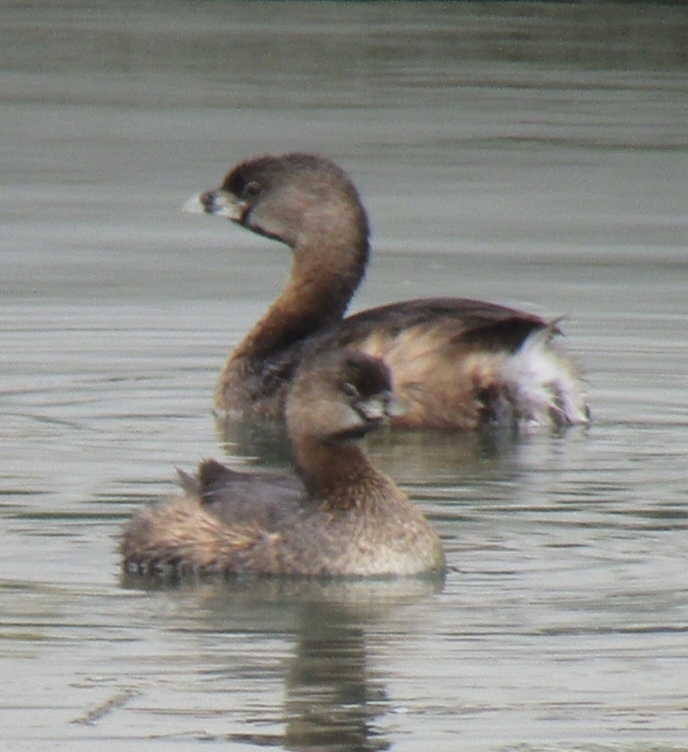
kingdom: Animalia
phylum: Chordata
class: Aves
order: Podicipediformes
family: Podicipedidae
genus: Podilymbus
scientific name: Podilymbus podiceps
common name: Pied-billed grebe
